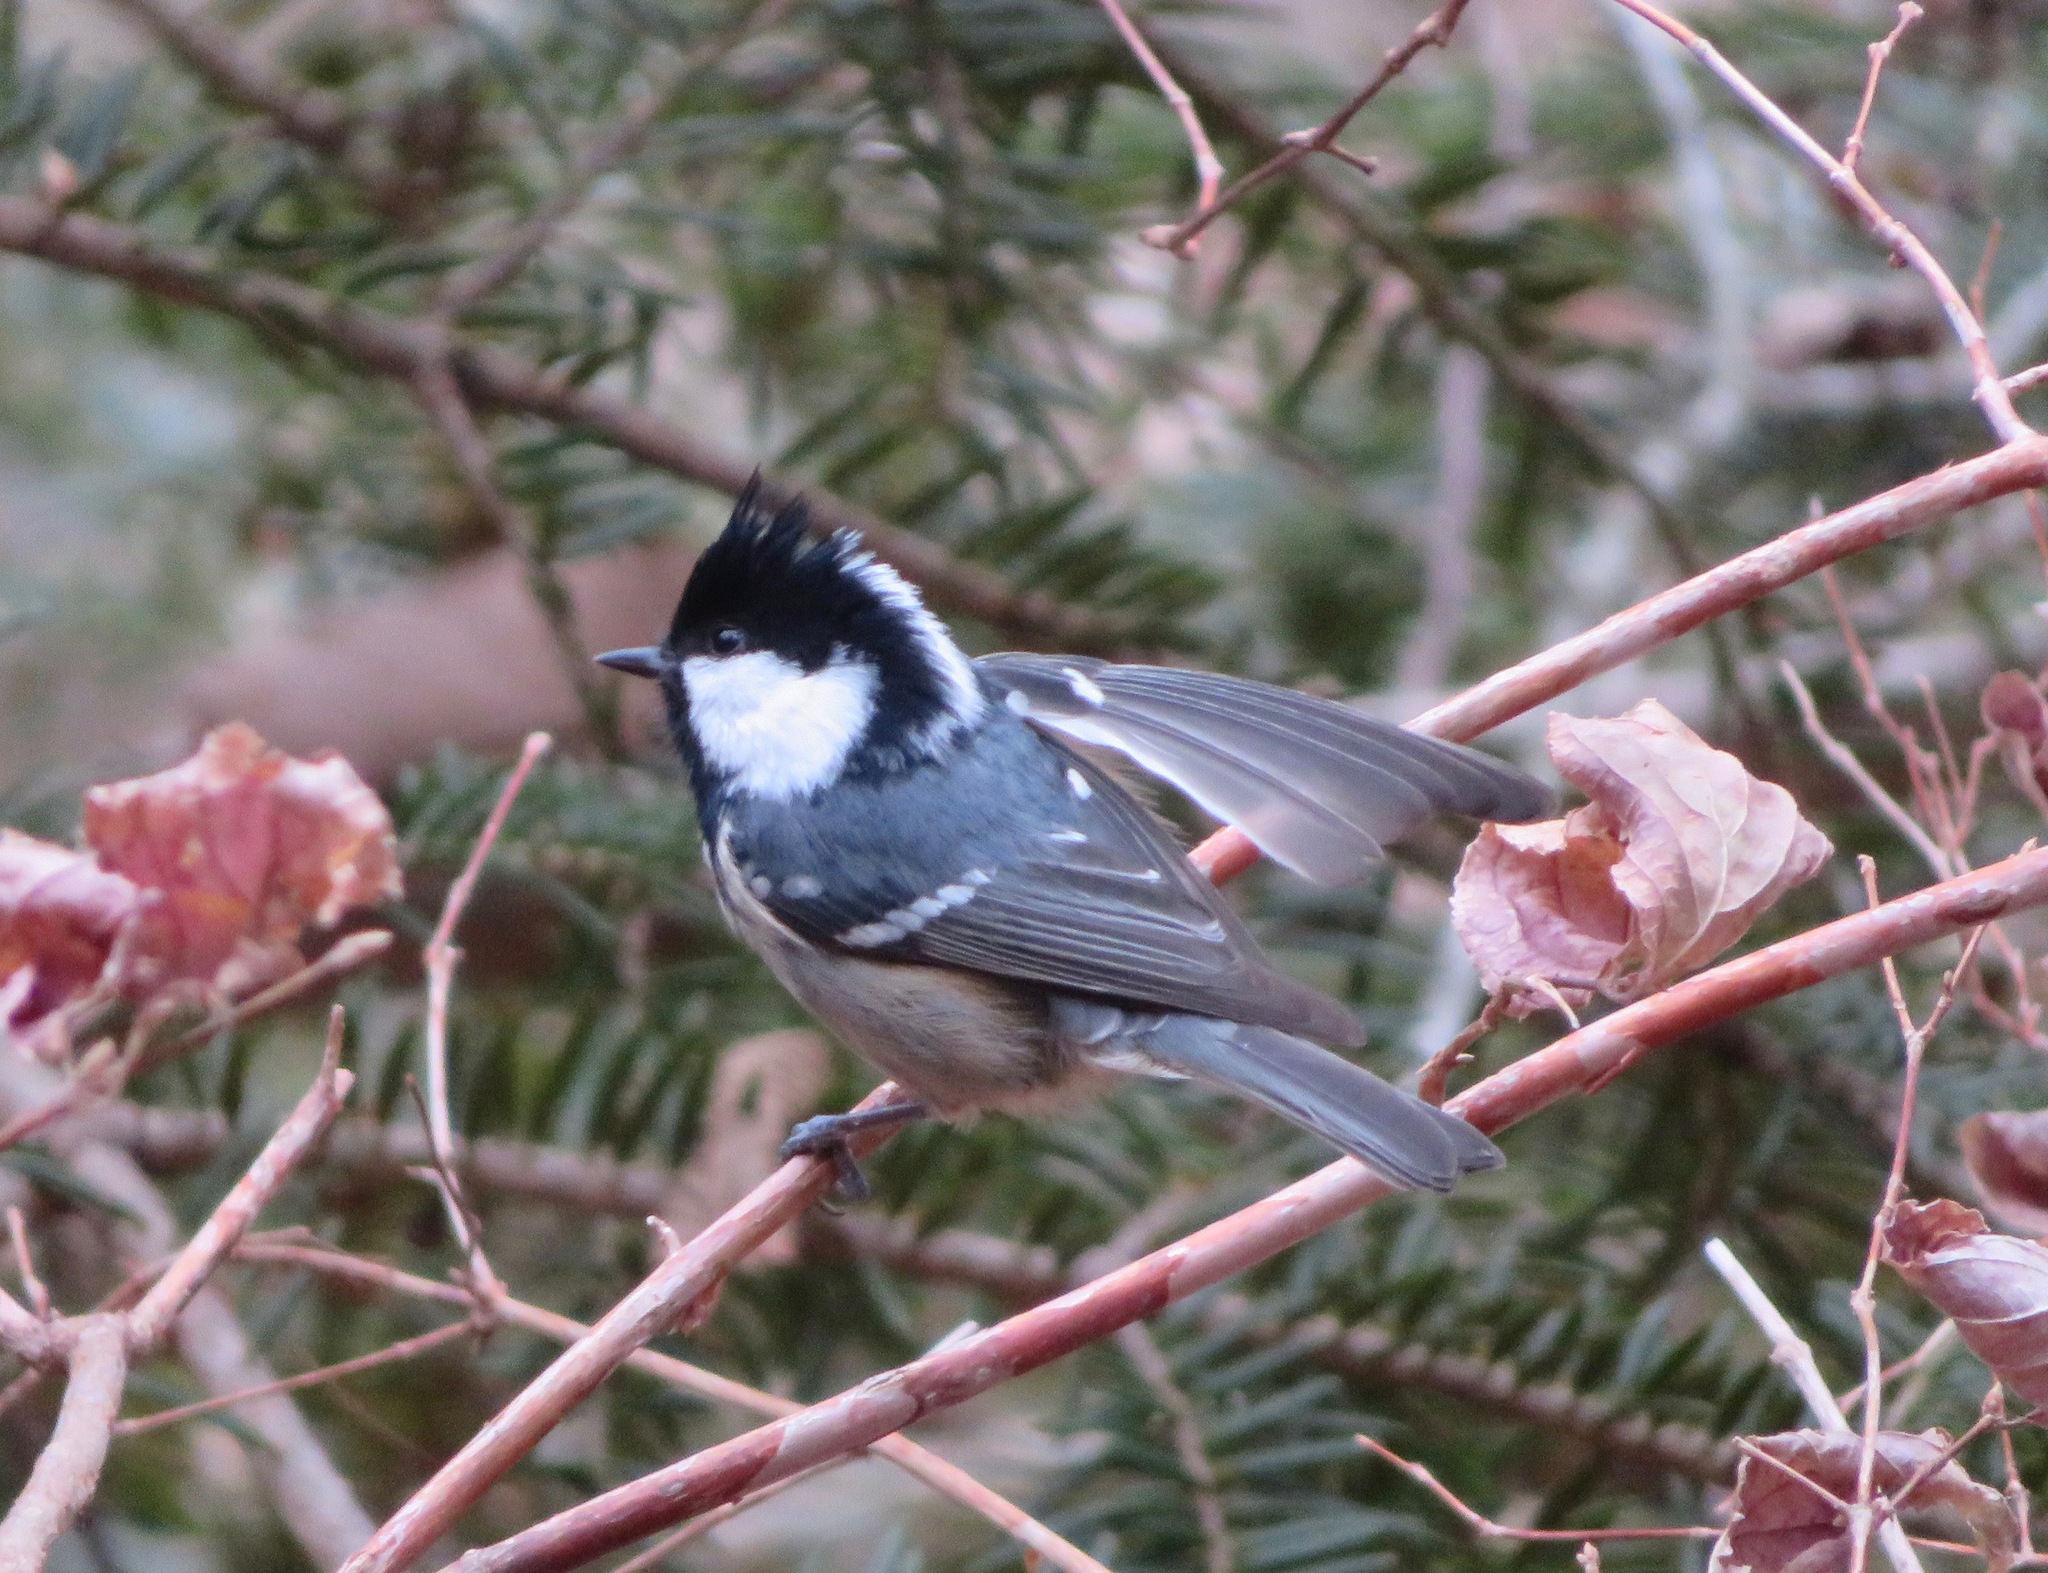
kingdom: Animalia
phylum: Chordata
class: Aves
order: Passeriformes
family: Paridae
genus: Periparus
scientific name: Periparus ater
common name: Coal tit
